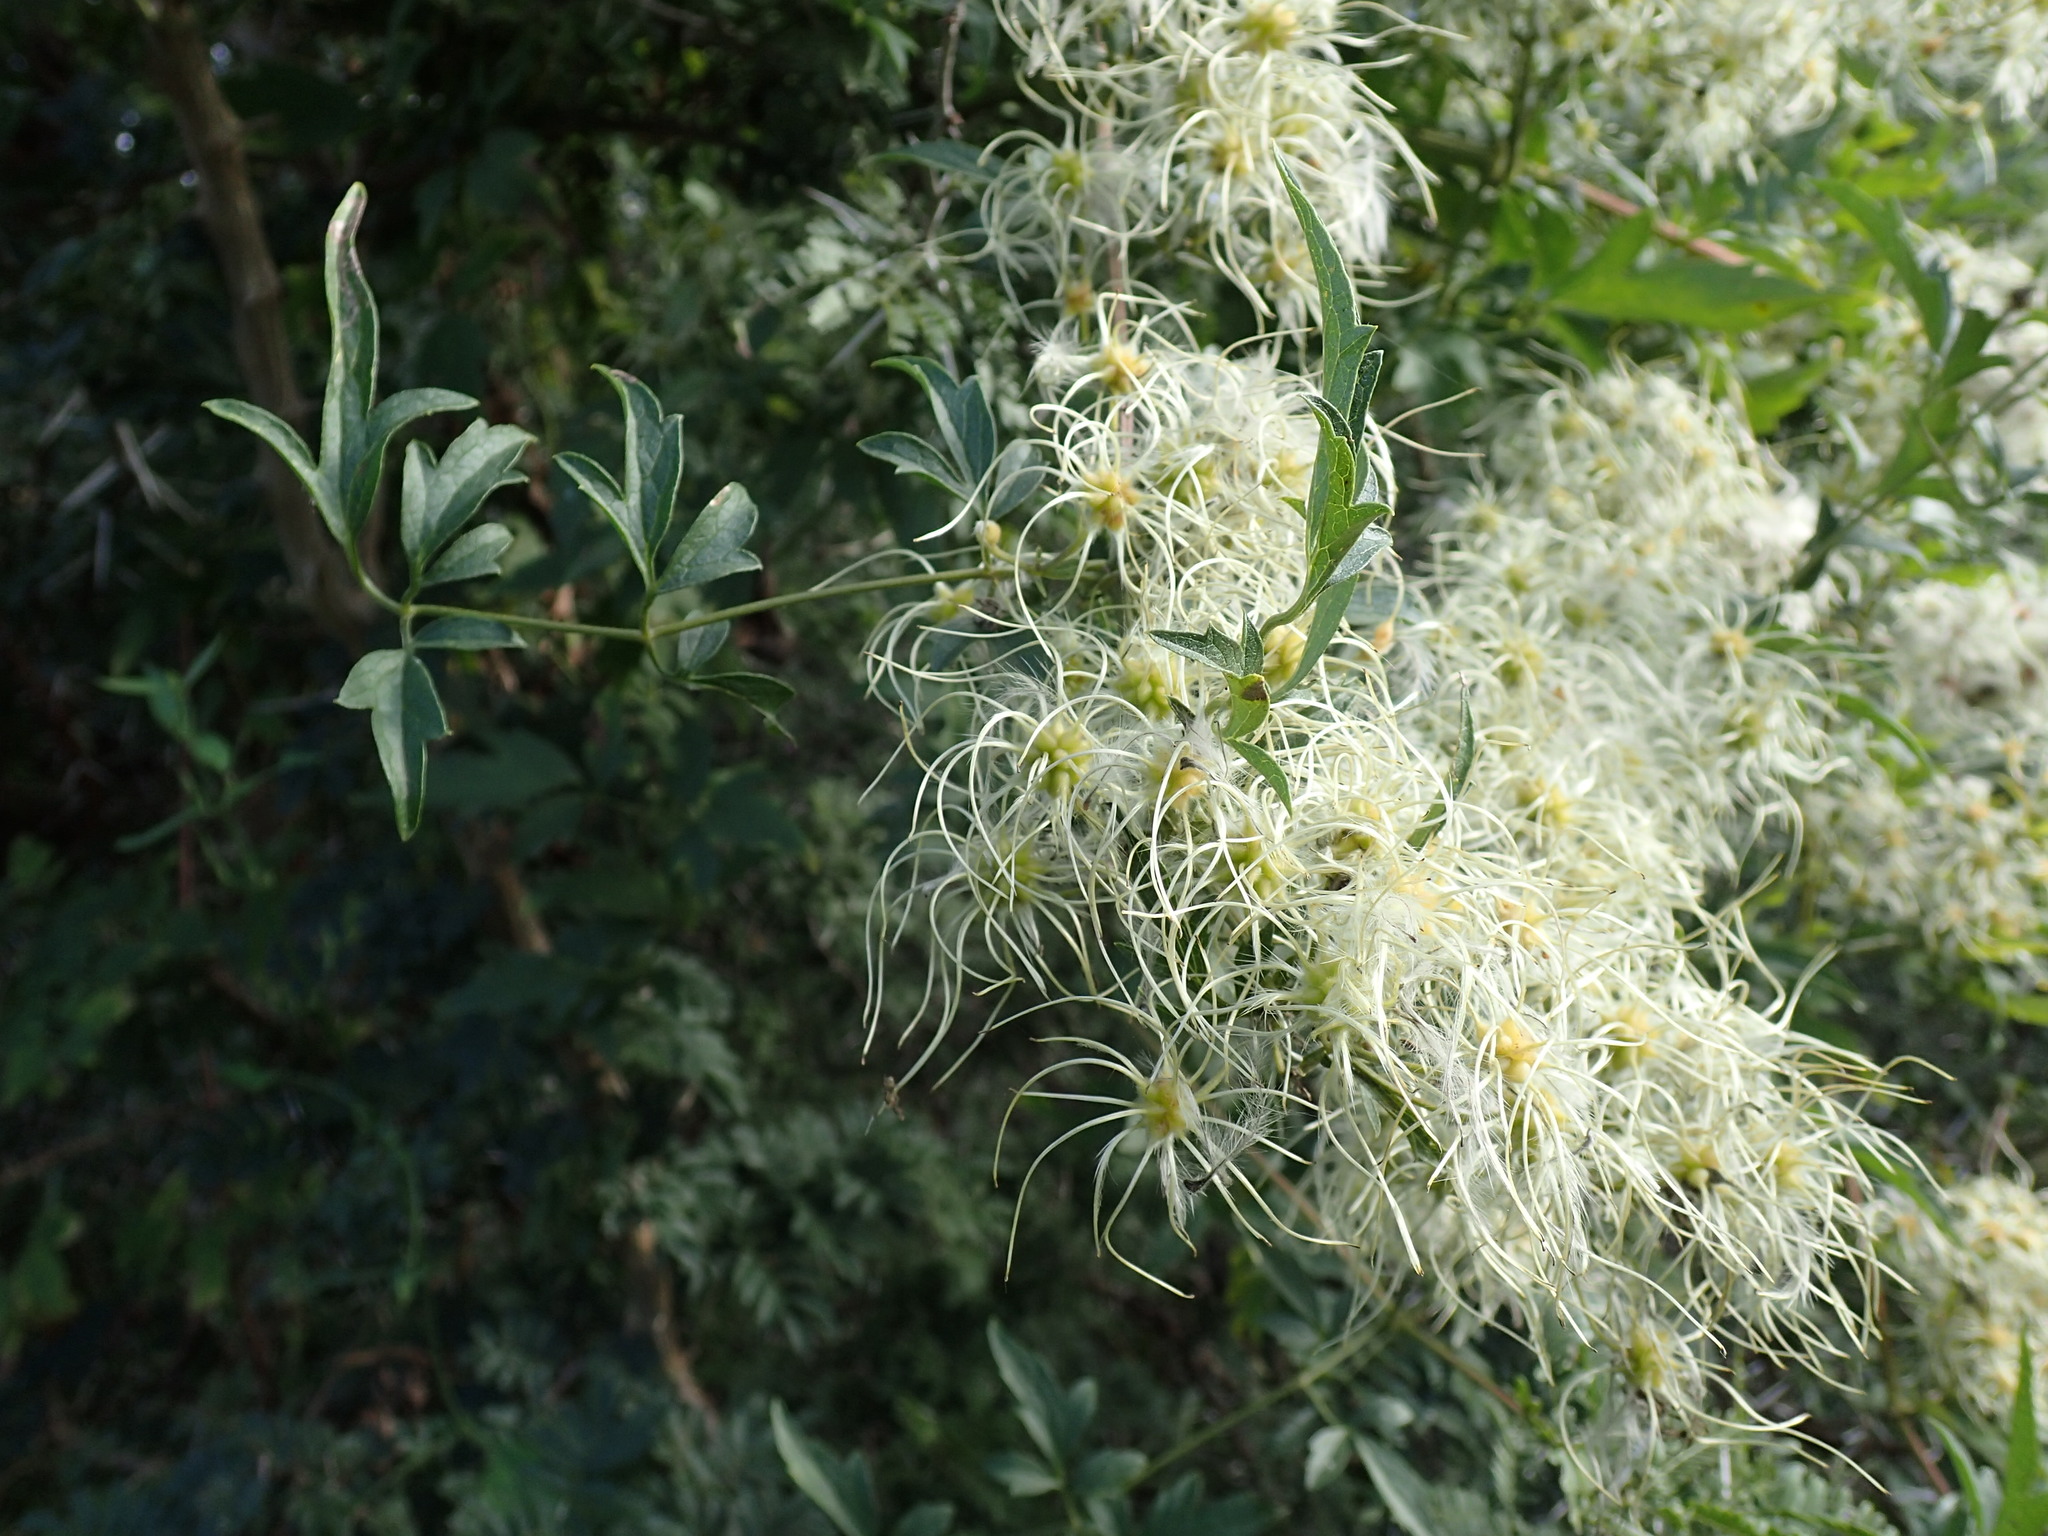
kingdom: Plantae
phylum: Tracheophyta
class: Magnoliopsida
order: Ranunculales
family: Ranunculaceae
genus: Clematis
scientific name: Clematis brachiata
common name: Traveler's-joy
